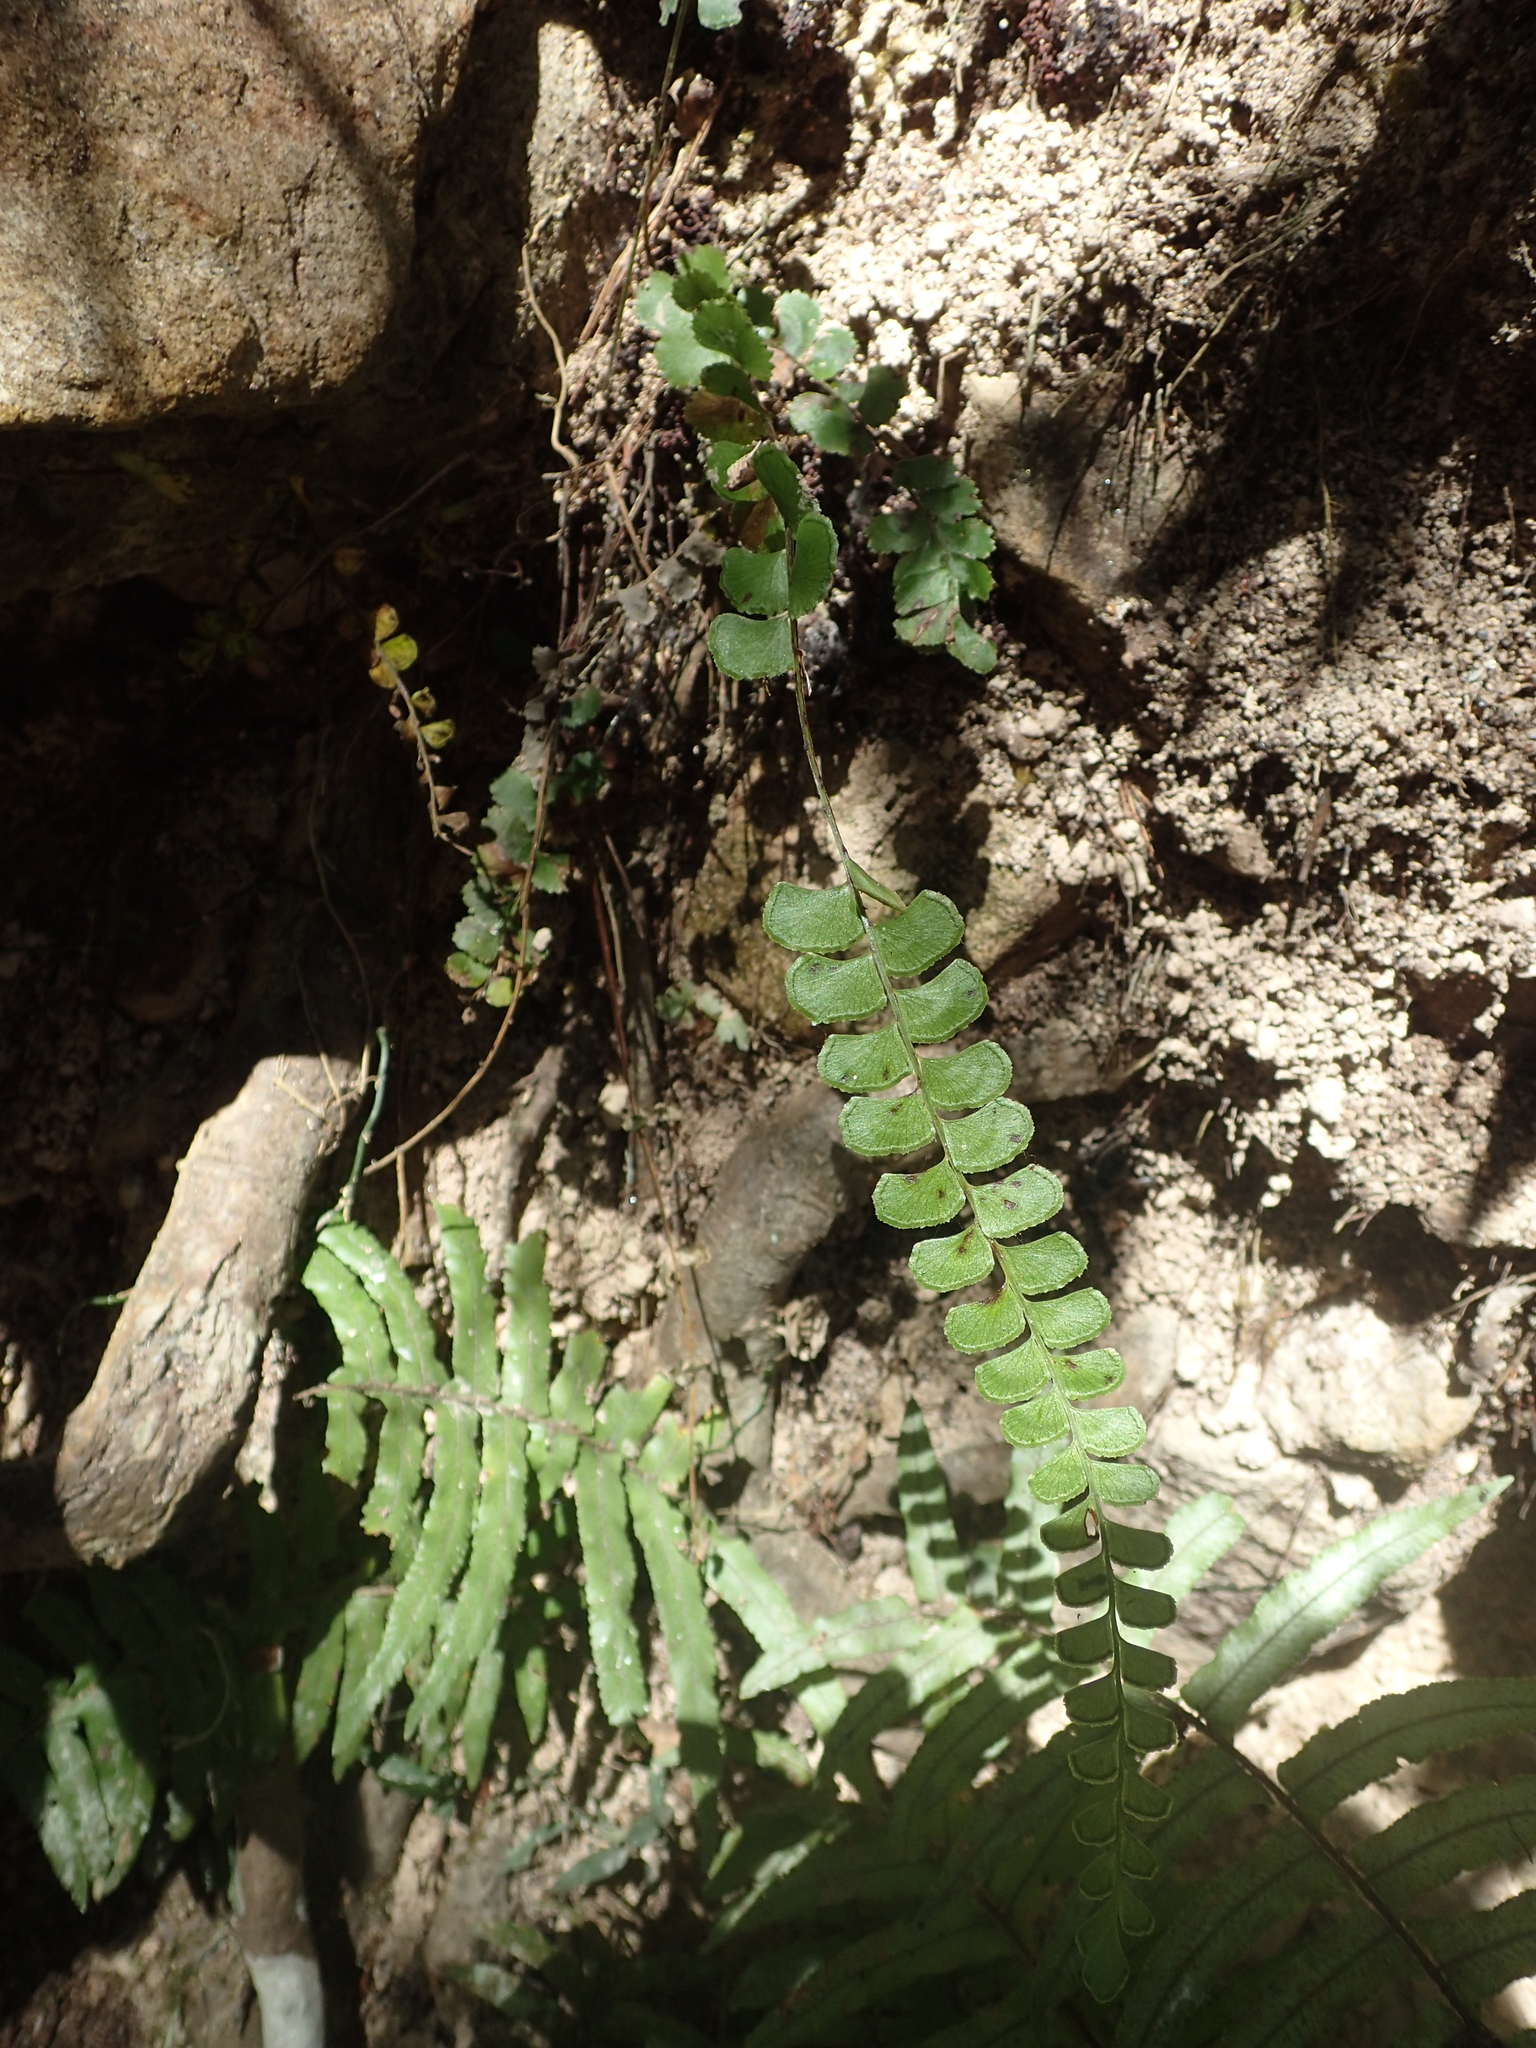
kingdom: Plantae
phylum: Tracheophyta
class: Polypodiopsida
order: Polypodiales
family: Lindsaeaceae
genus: Lindsaea
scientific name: Lindsaea orbiculata
